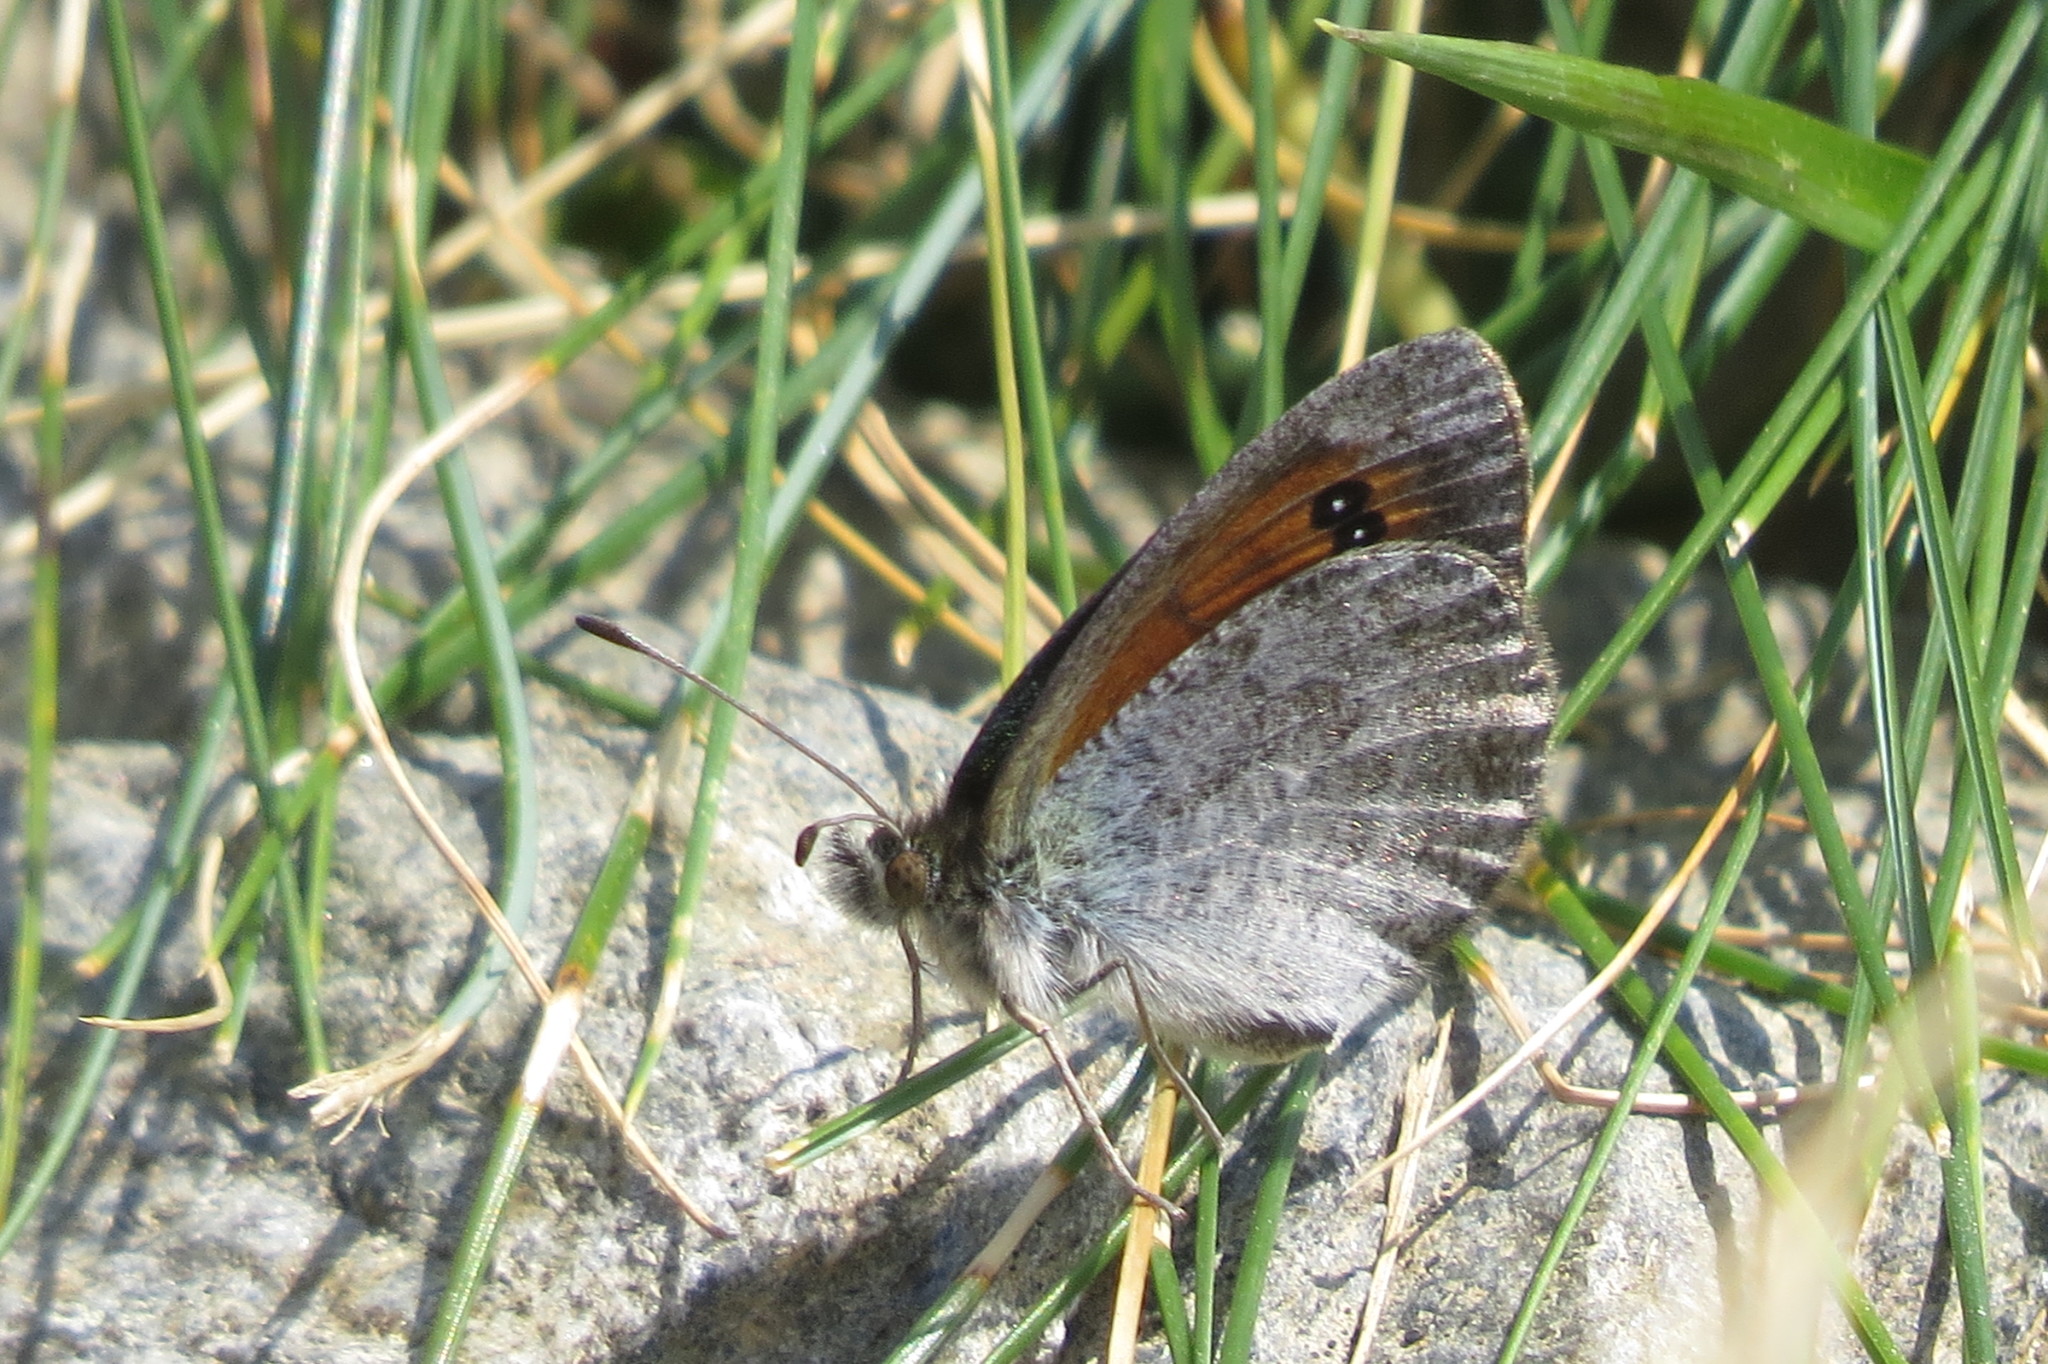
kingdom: Animalia
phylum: Arthropoda
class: Insecta
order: Lepidoptera
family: Nymphalidae
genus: Erebia
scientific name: Erebia cassioides
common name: Common brassy ringlet
